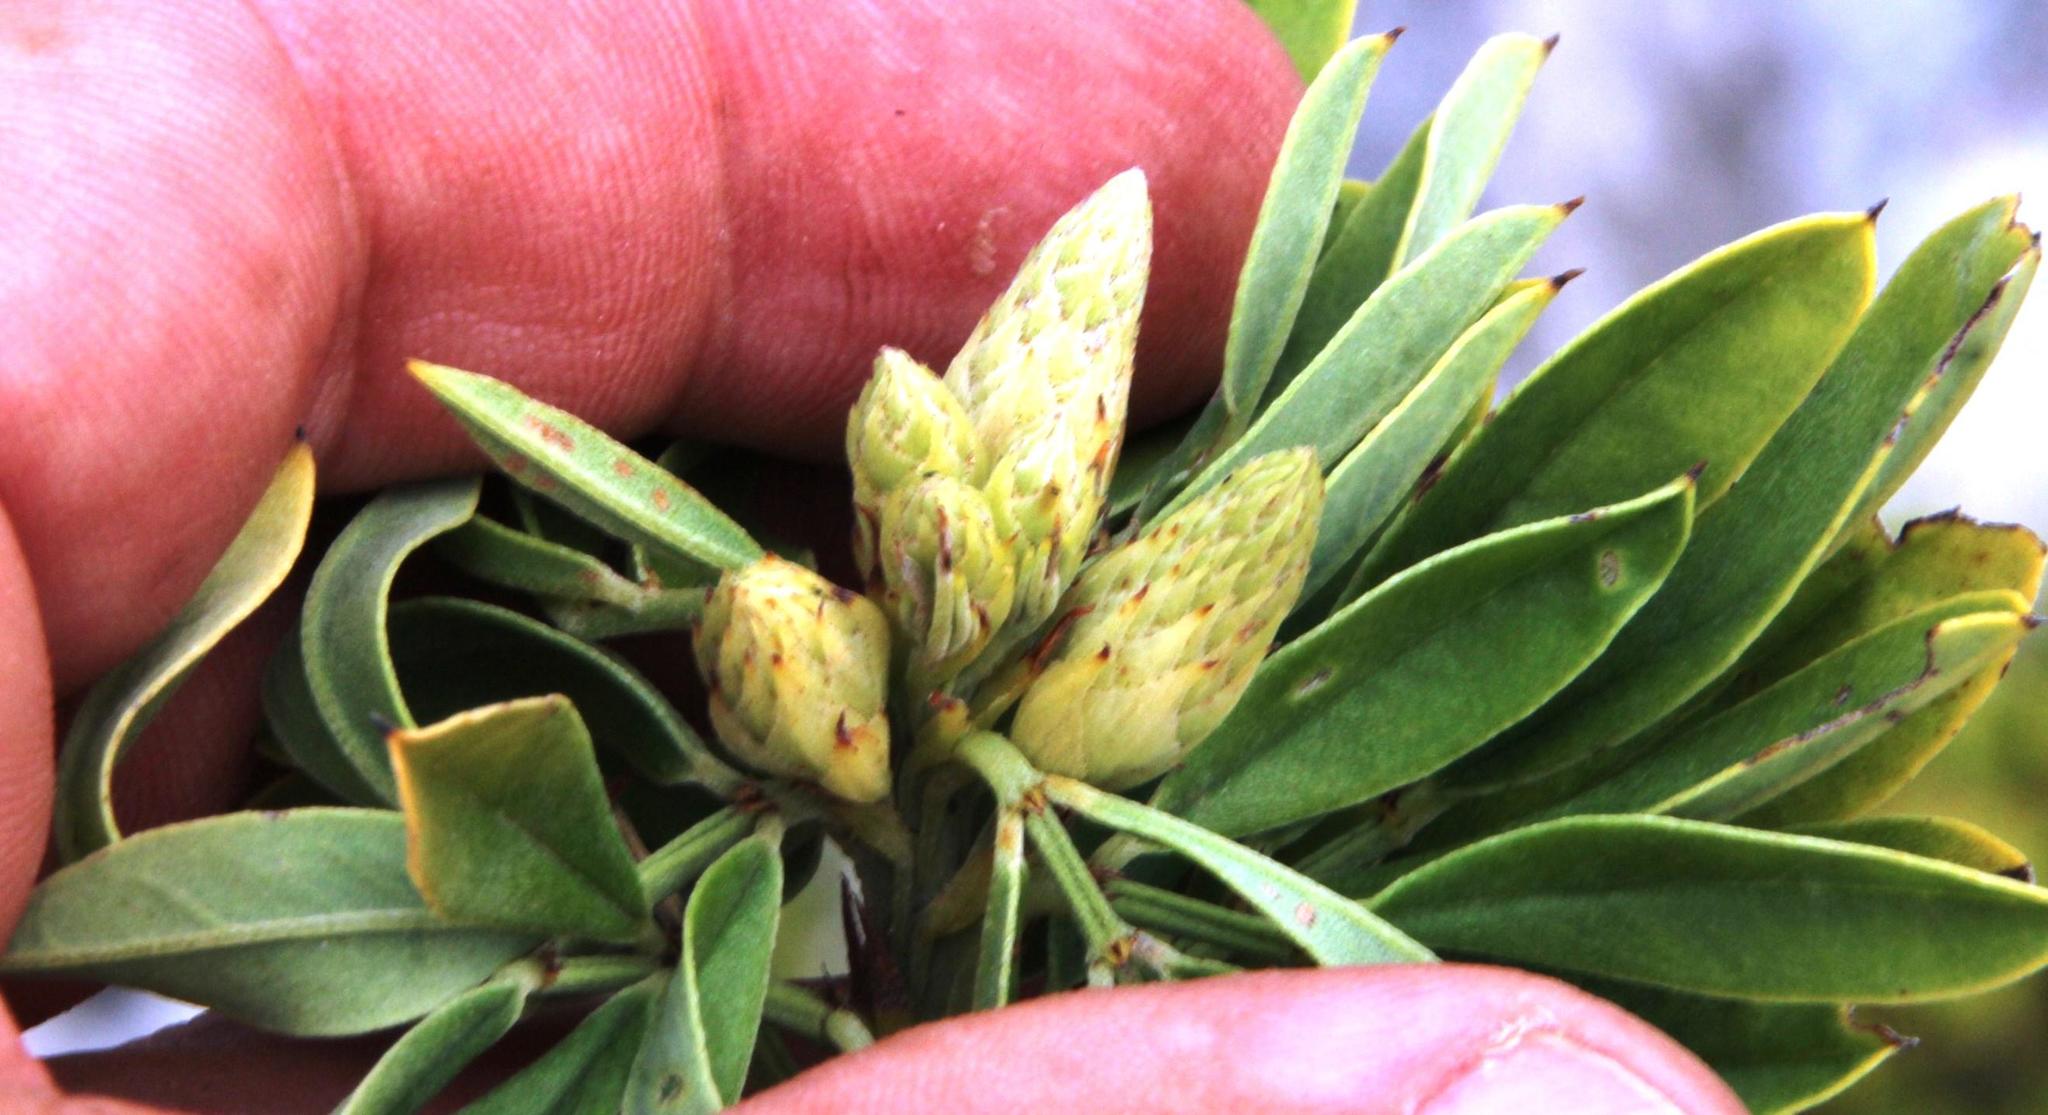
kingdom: Plantae
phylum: Tracheophyta
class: Magnoliopsida
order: Fabales
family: Fabaceae
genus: Indigofera
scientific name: Indigofera cytisoides
